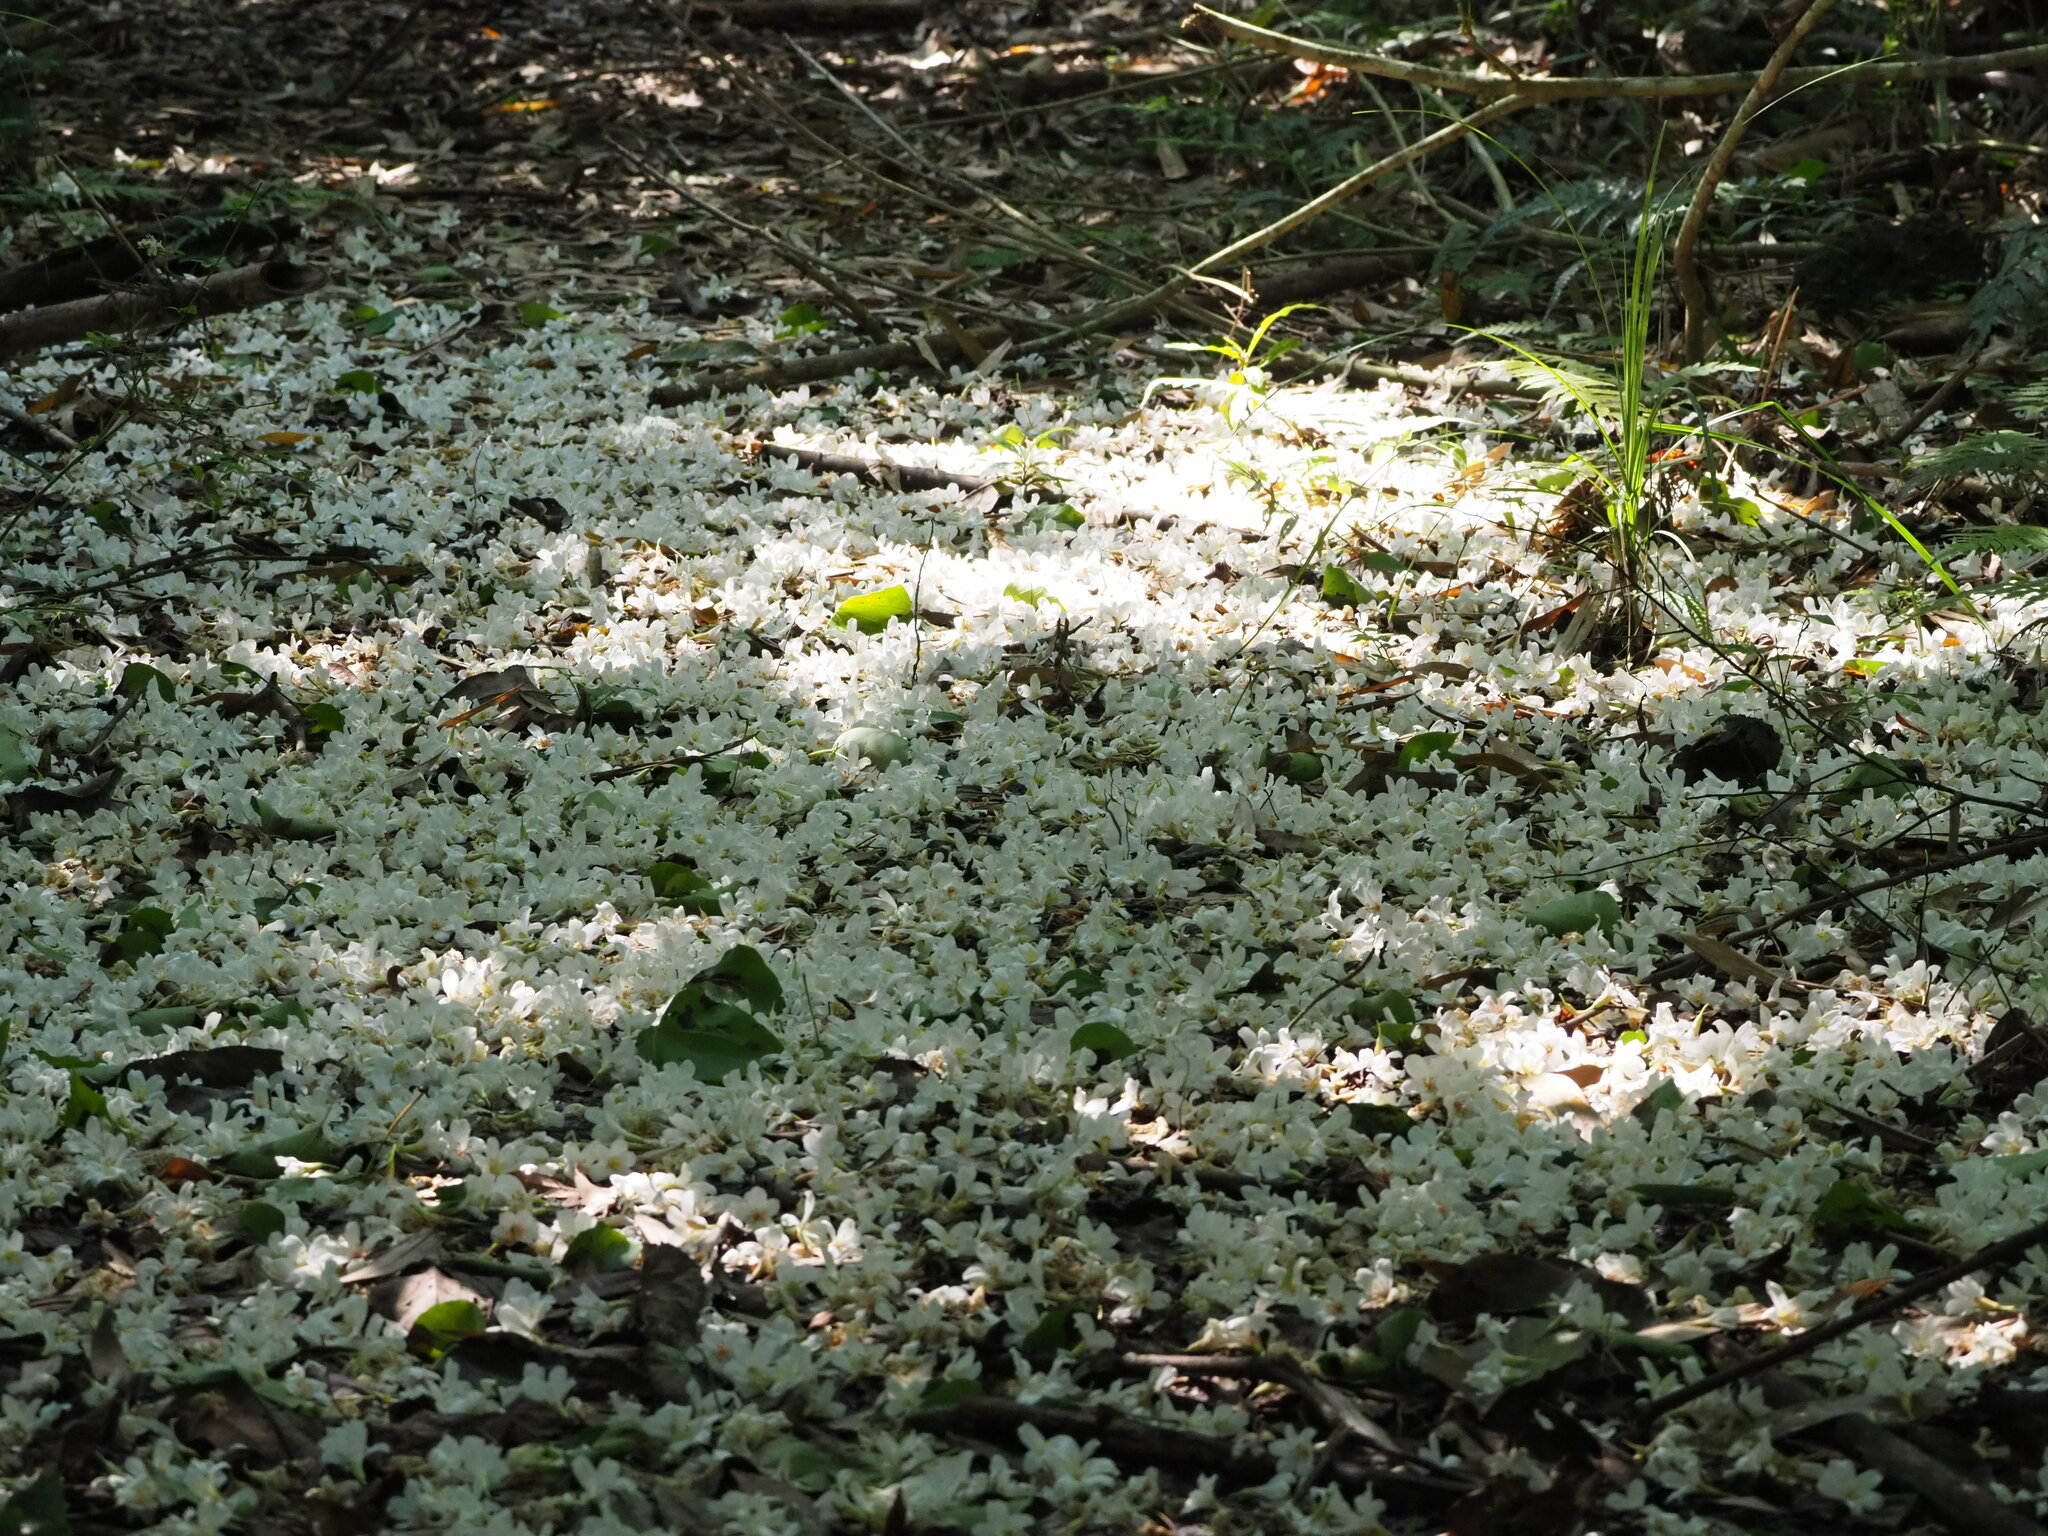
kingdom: Plantae
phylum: Tracheophyta
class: Magnoliopsida
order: Malpighiales
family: Euphorbiaceae
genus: Vernicia
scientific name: Vernicia montana
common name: Mu oil tree
